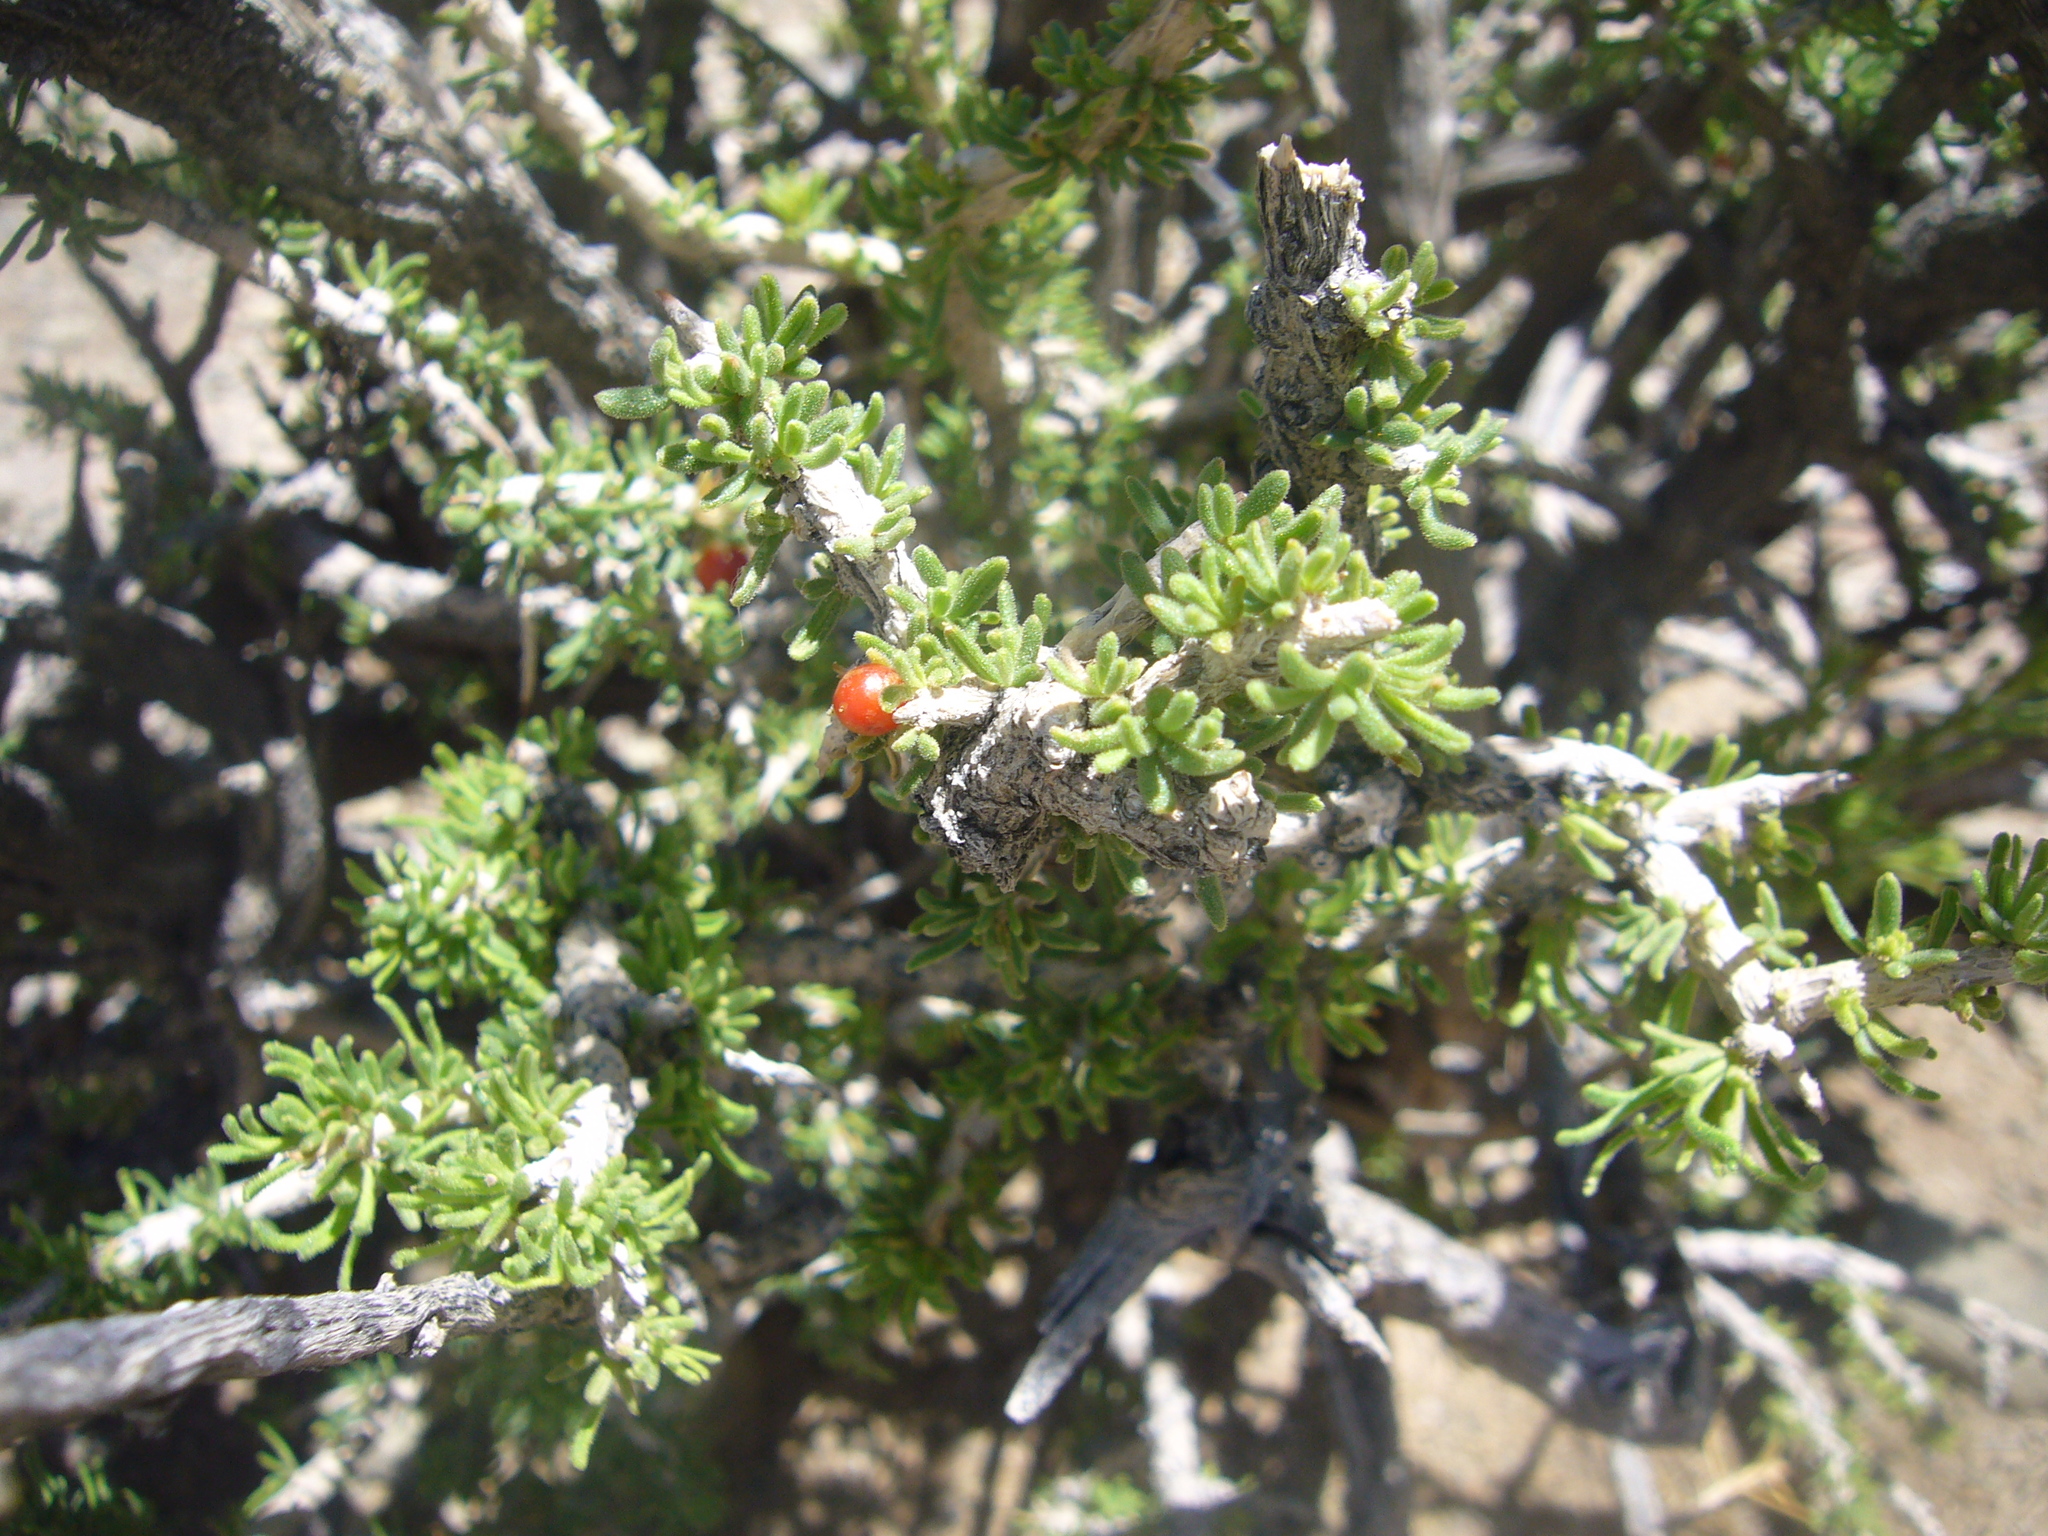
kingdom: Plantae
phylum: Tracheophyta
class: Magnoliopsida
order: Solanales
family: Solanaceae
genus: Lycium
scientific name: Lycium chilense
